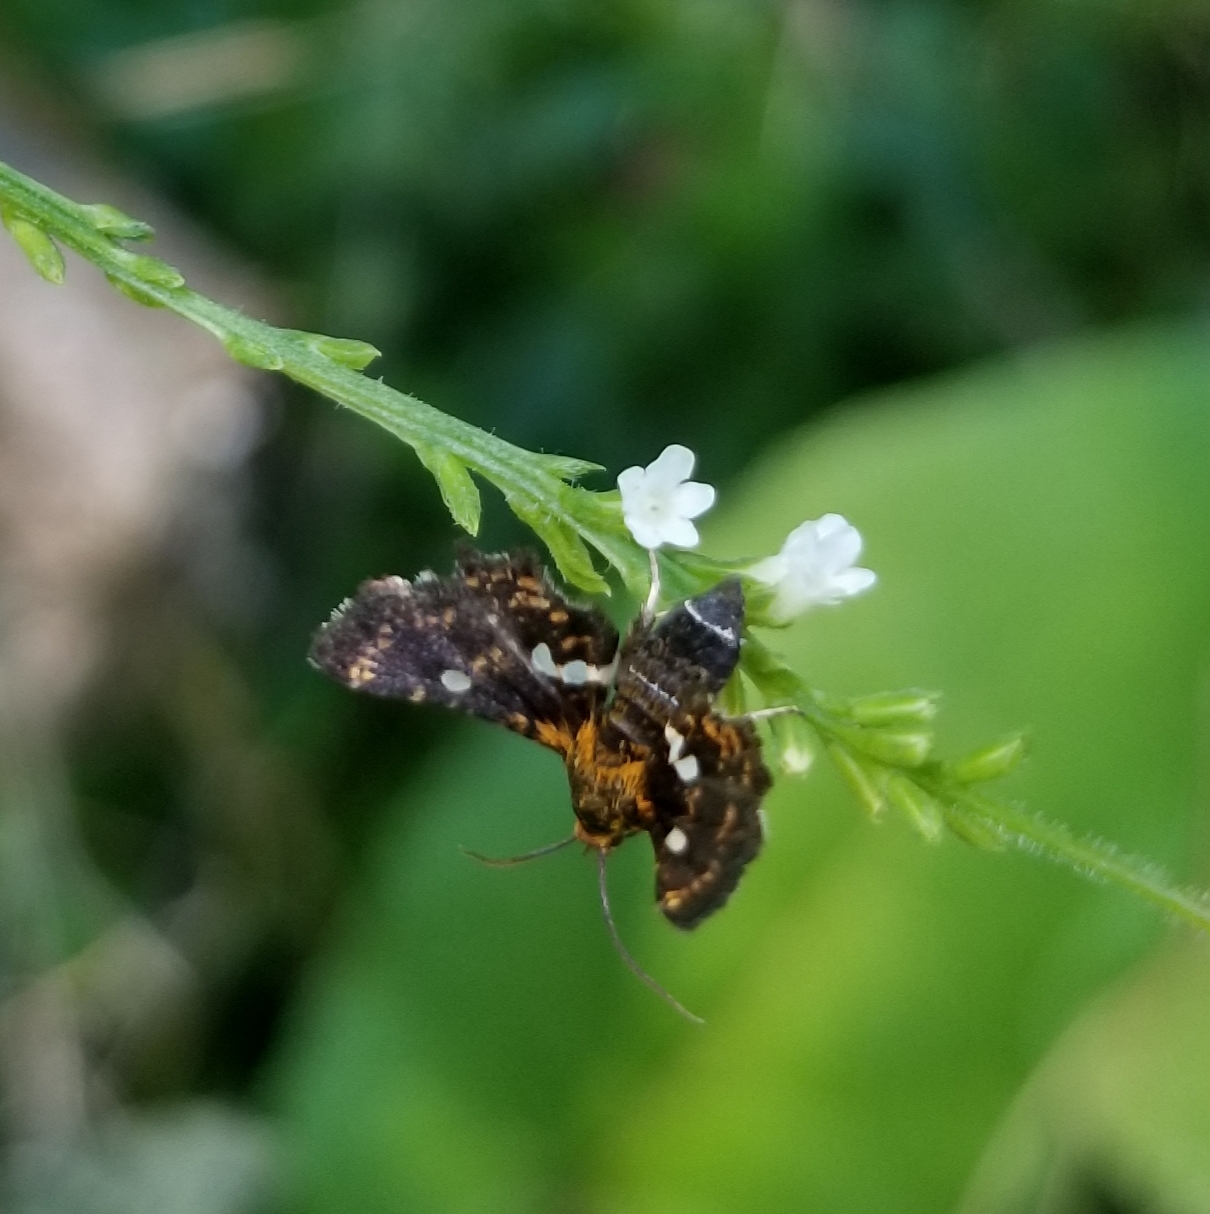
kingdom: Animalia
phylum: Arthropoda
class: Insecta
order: Lepidoptera
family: Thyrididae
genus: Thyris
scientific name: Thyris maculata
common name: Spotted thyris moth
